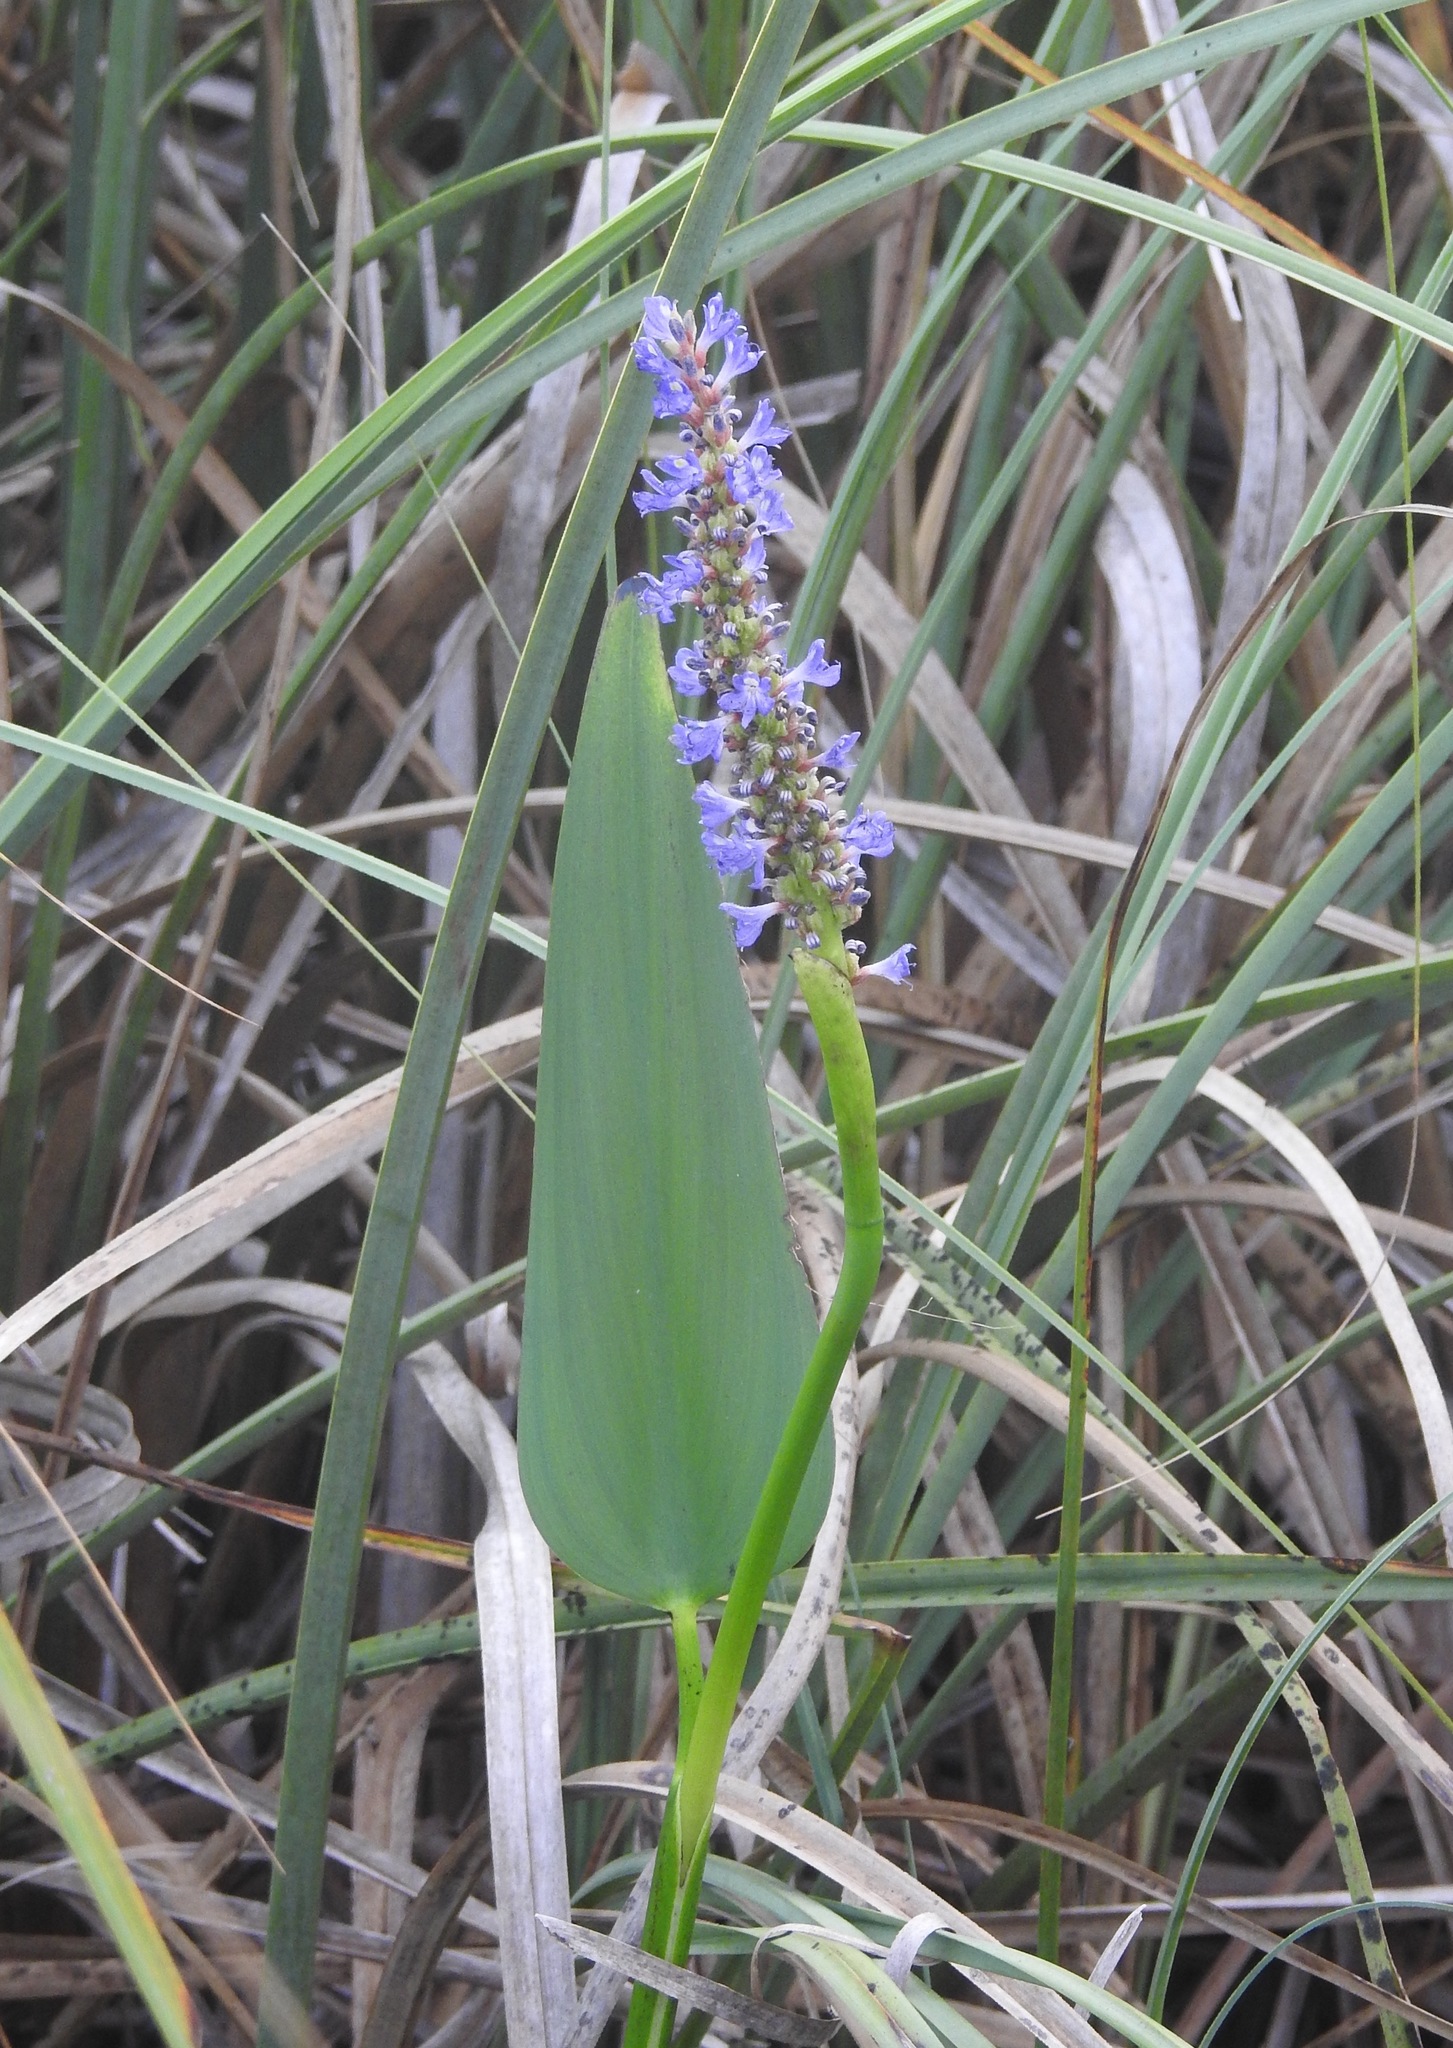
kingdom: Plantae
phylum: Tracheophyta
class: Liliopsida
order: Commelinales
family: Pontederiaceae
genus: Pontederia
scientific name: Pontederia cordata
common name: Pickerelweed
